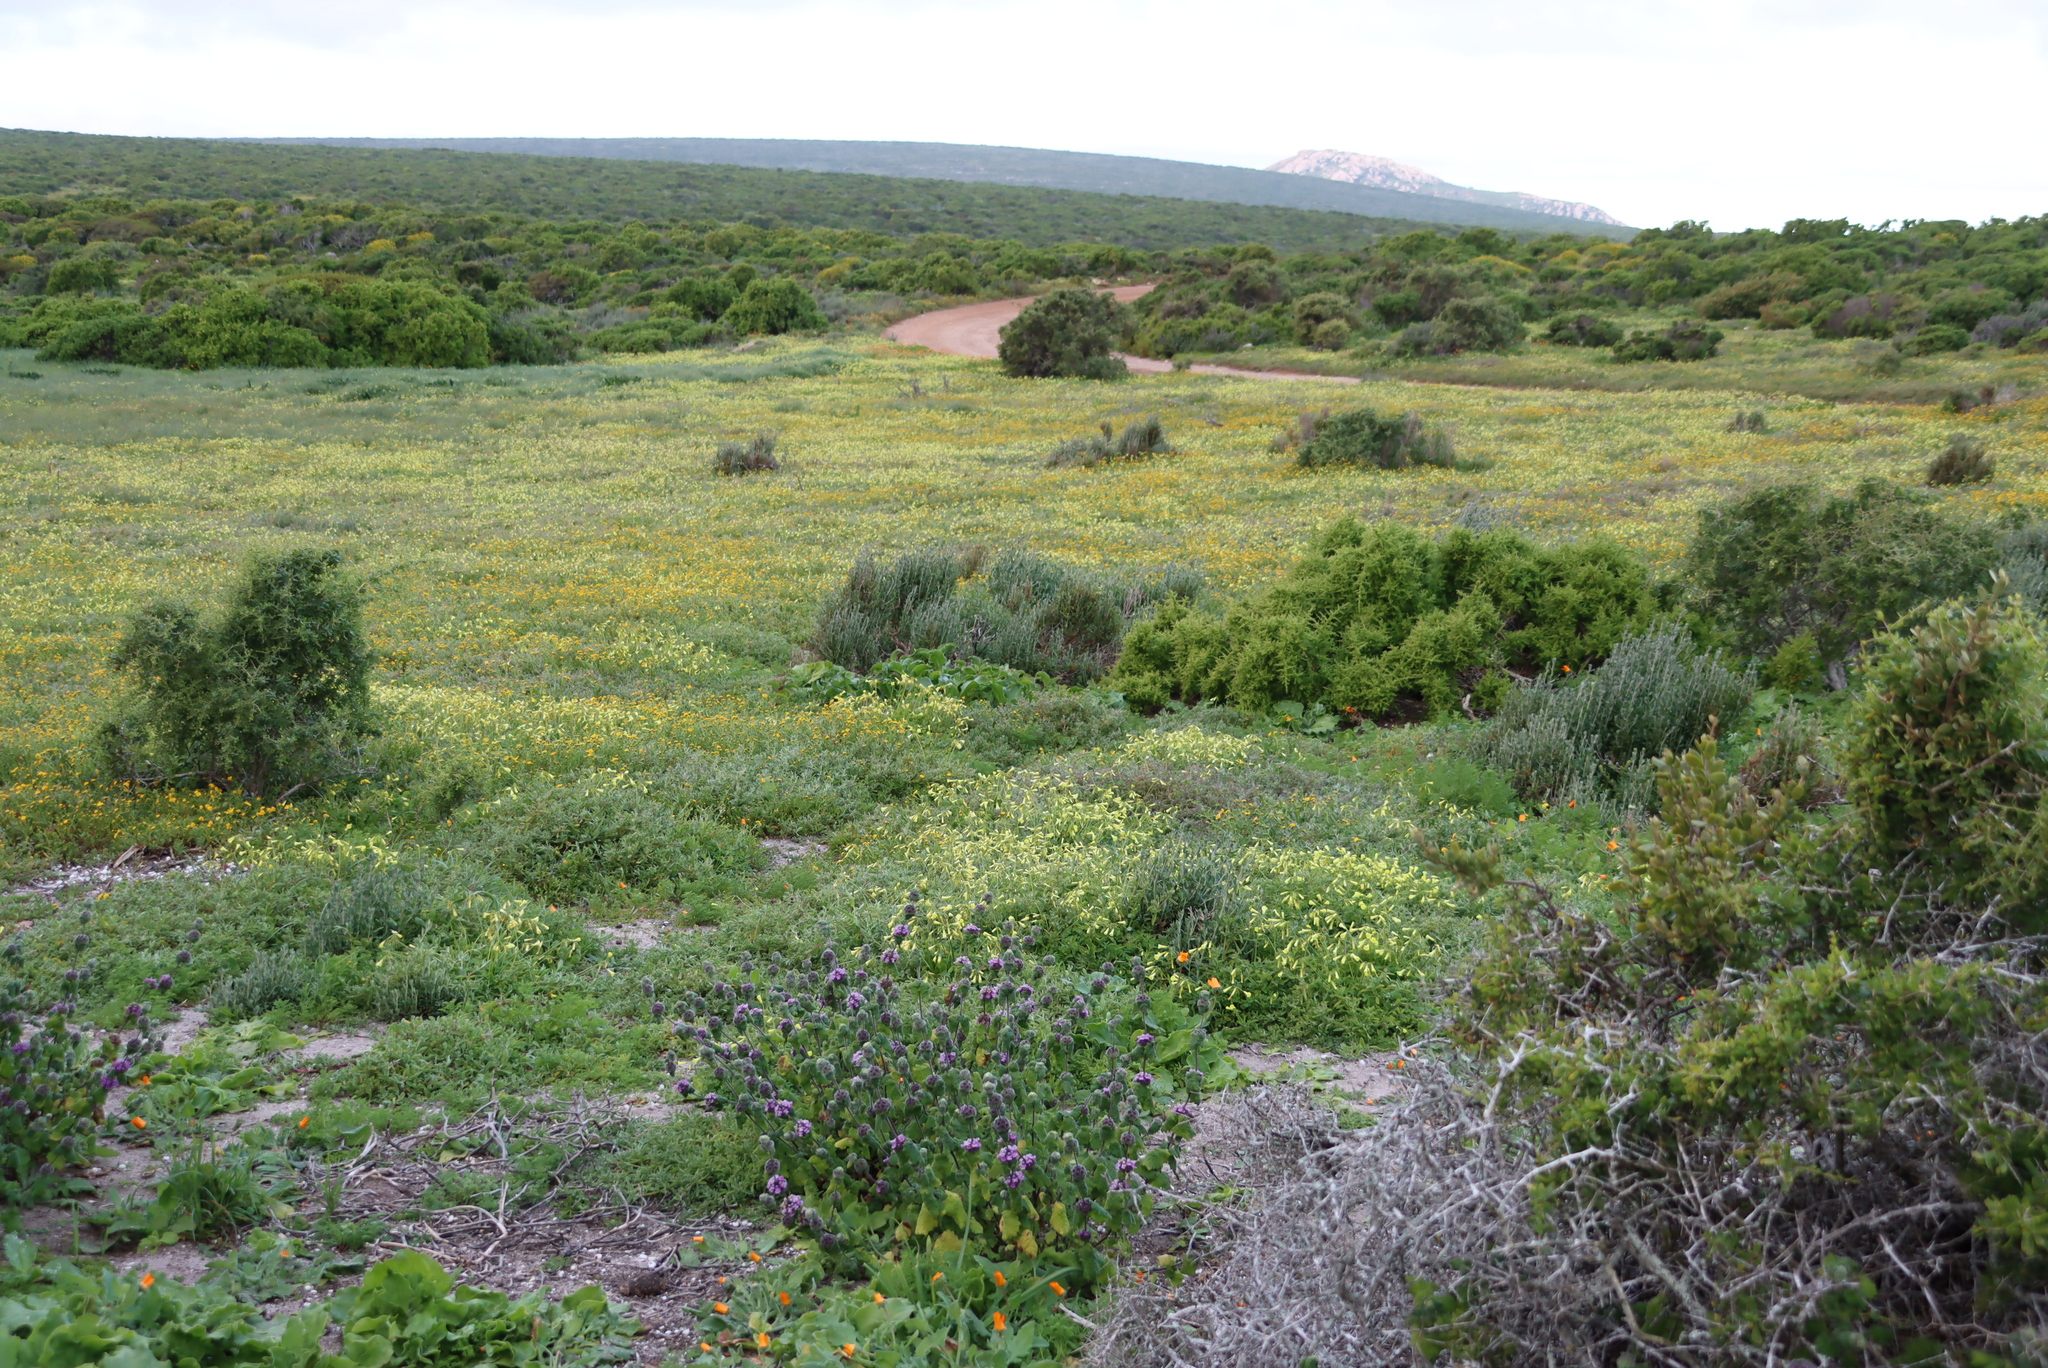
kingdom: Plantae
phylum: Tracheophyta
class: Magnoliopsida
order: Oxalidales
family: Oxalidaceae
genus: Oxalis
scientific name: Oxalis pes-caprae
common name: Bermuda-buttercup
